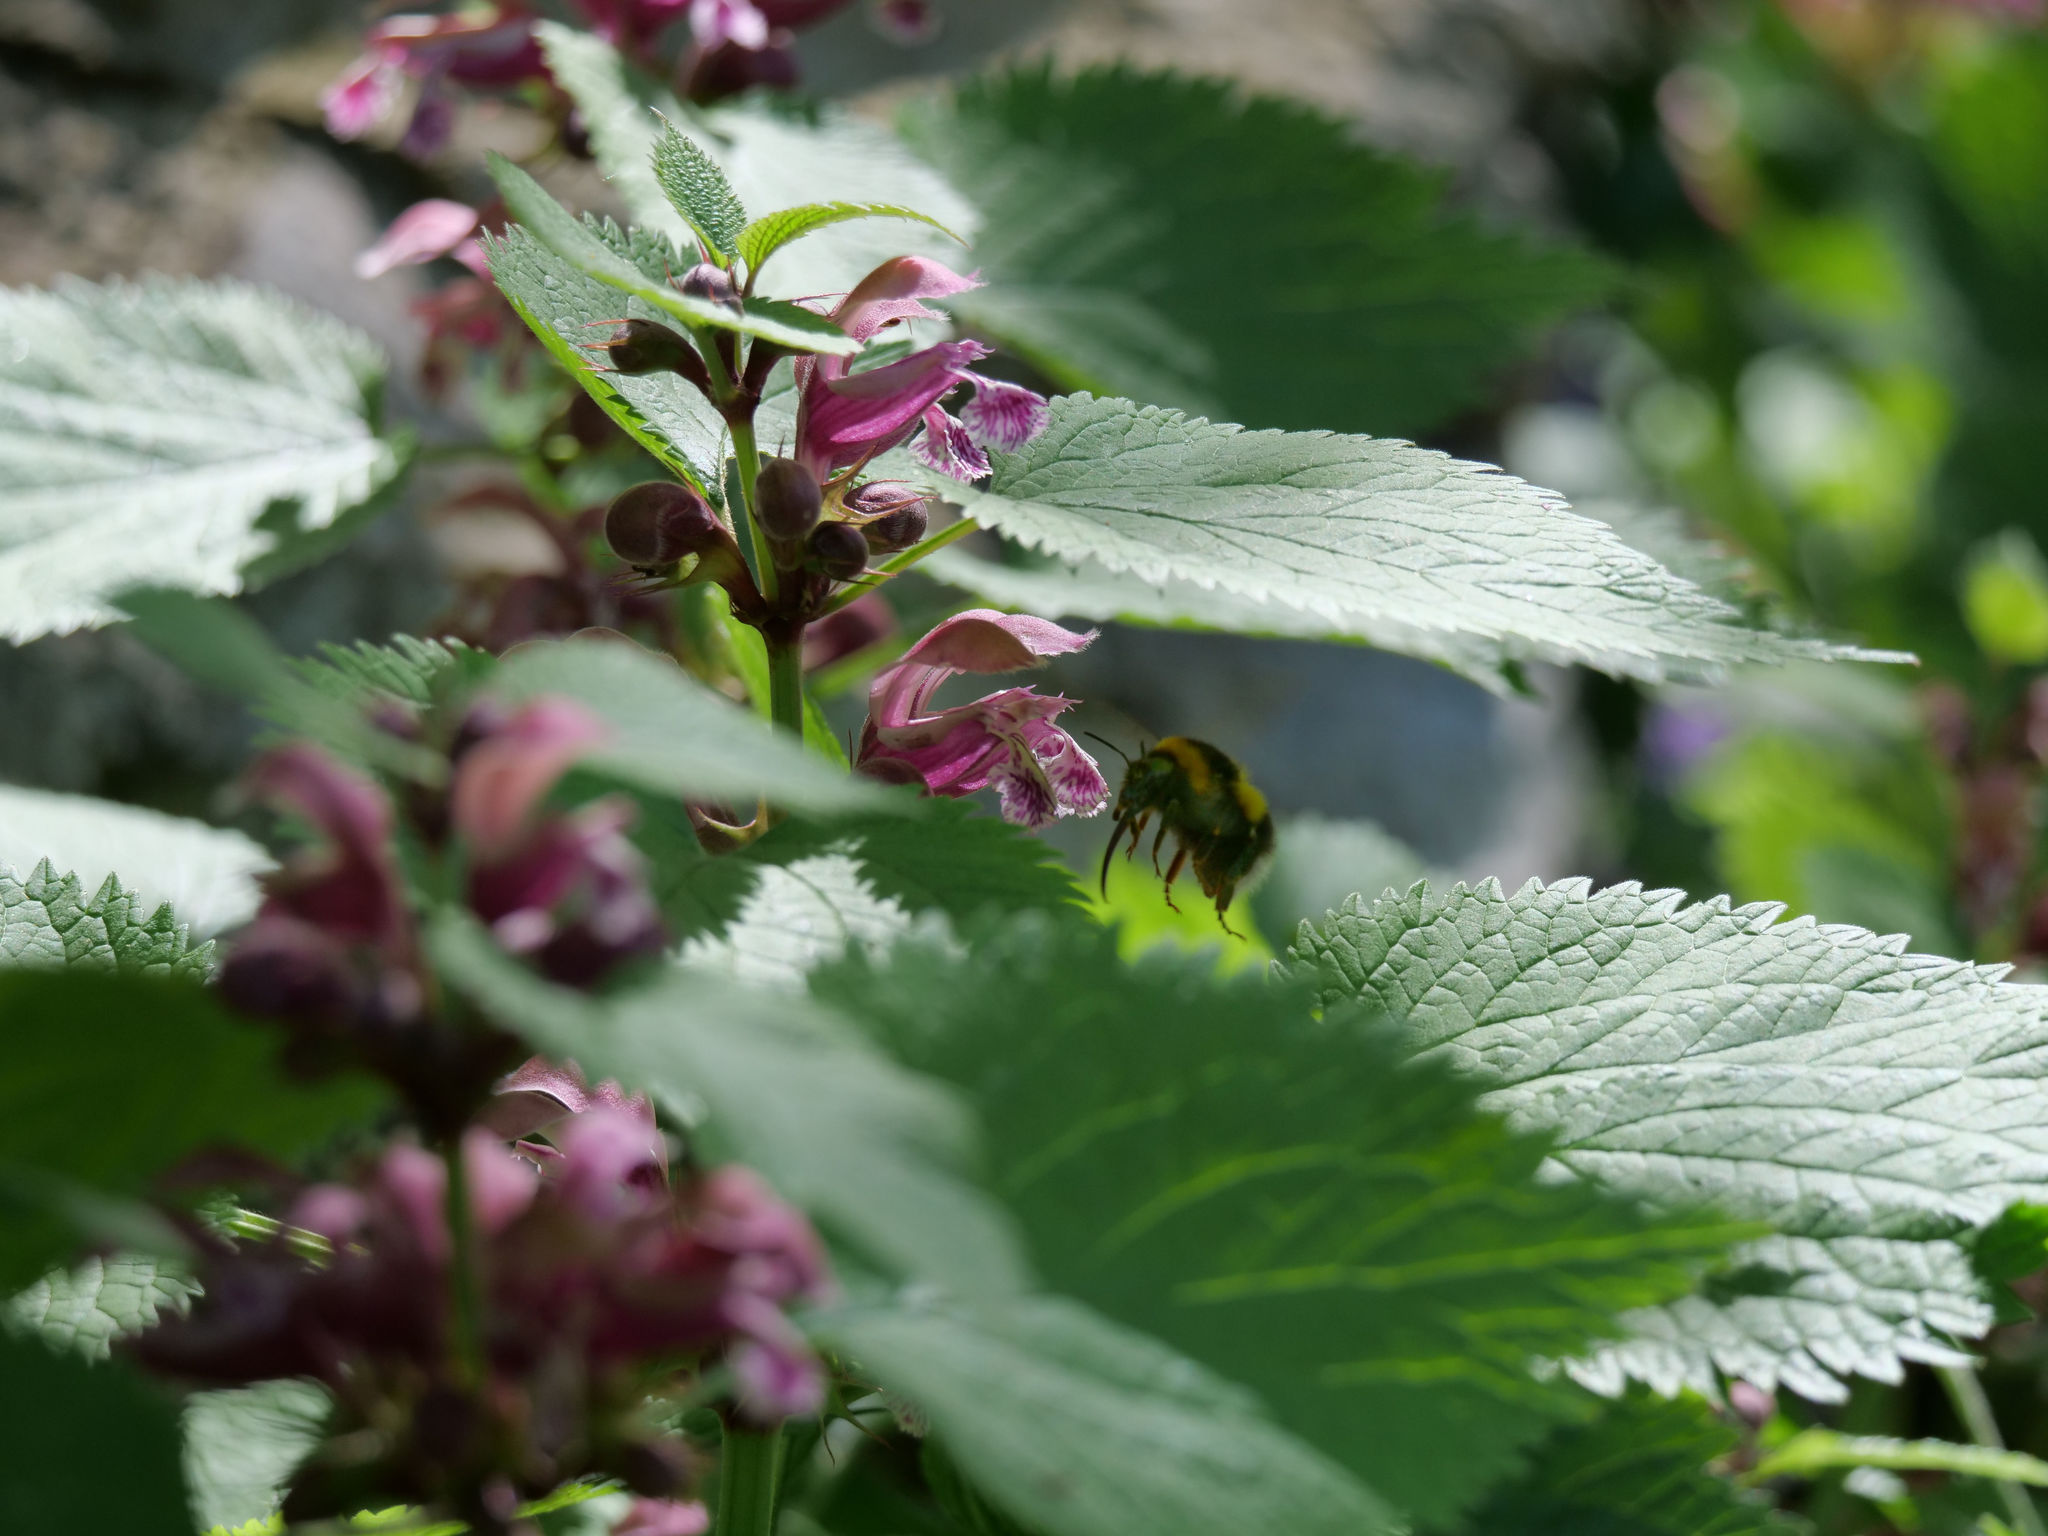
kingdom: Animalia
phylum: Arthropoda
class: Insecta
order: Hymenoptera
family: Apidae
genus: Bombus
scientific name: Bombus hortorum
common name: Garden bumblebee
